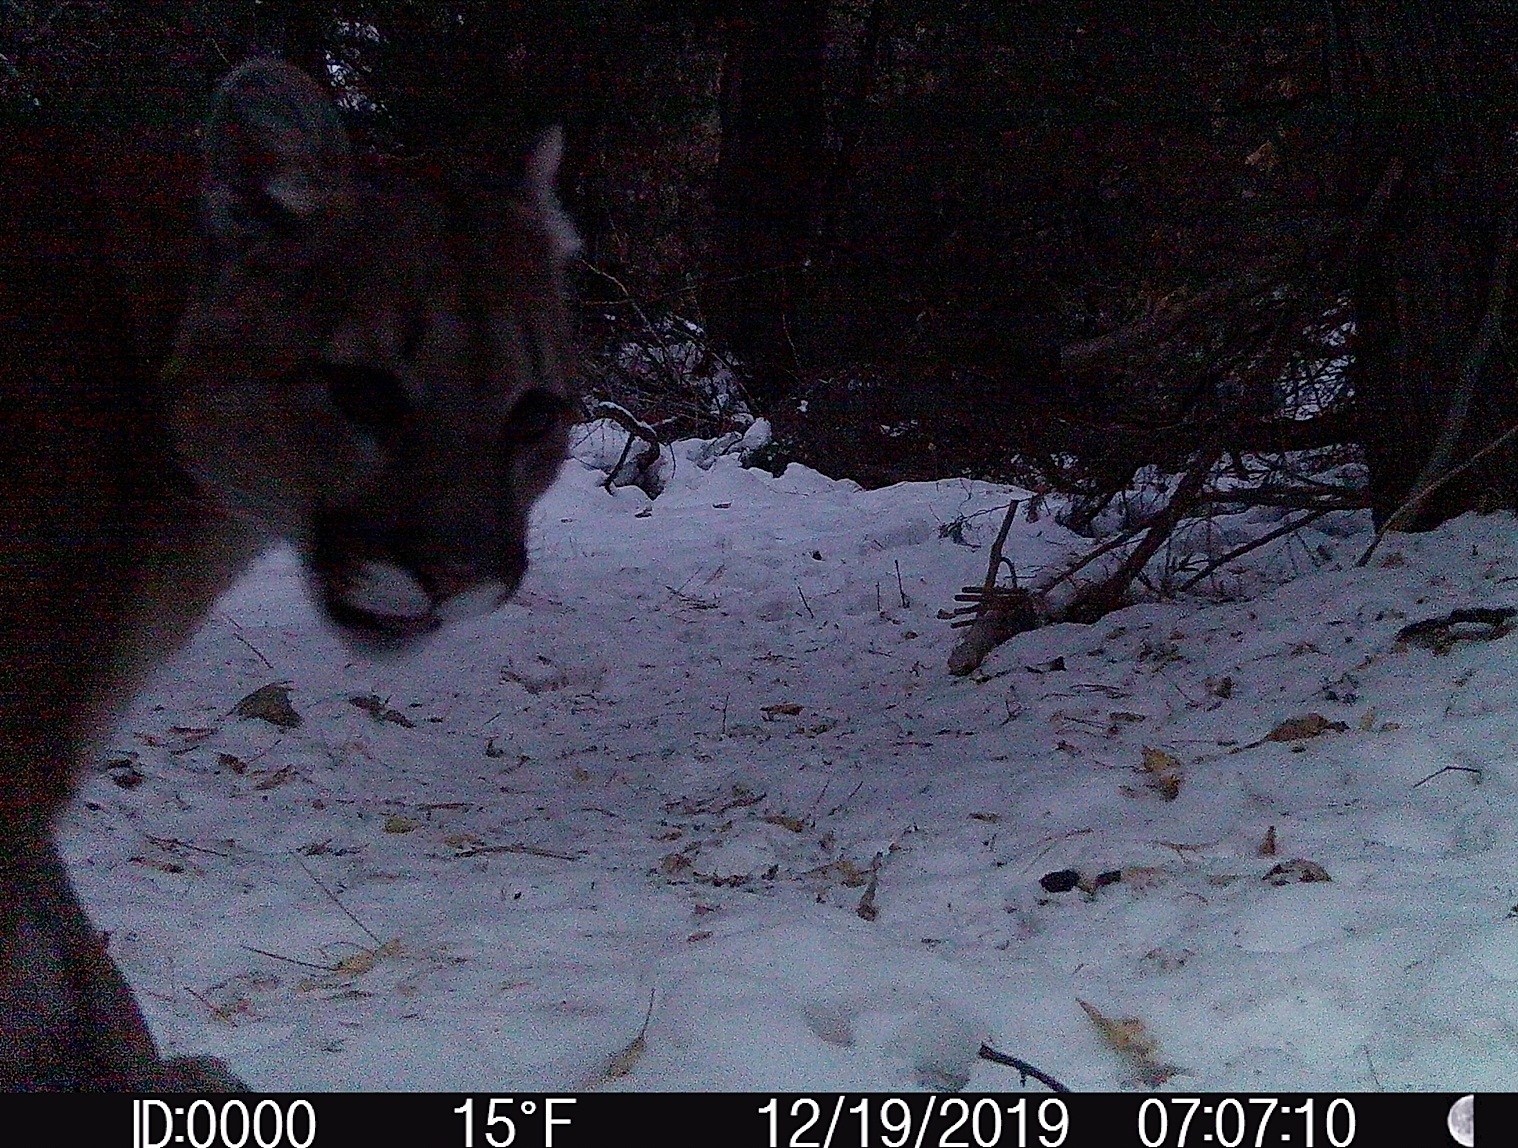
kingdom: Animalia
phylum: Chordata
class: Mammalia
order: Carnivora
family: Felidae
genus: Puma
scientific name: Puma concolor
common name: Puma
